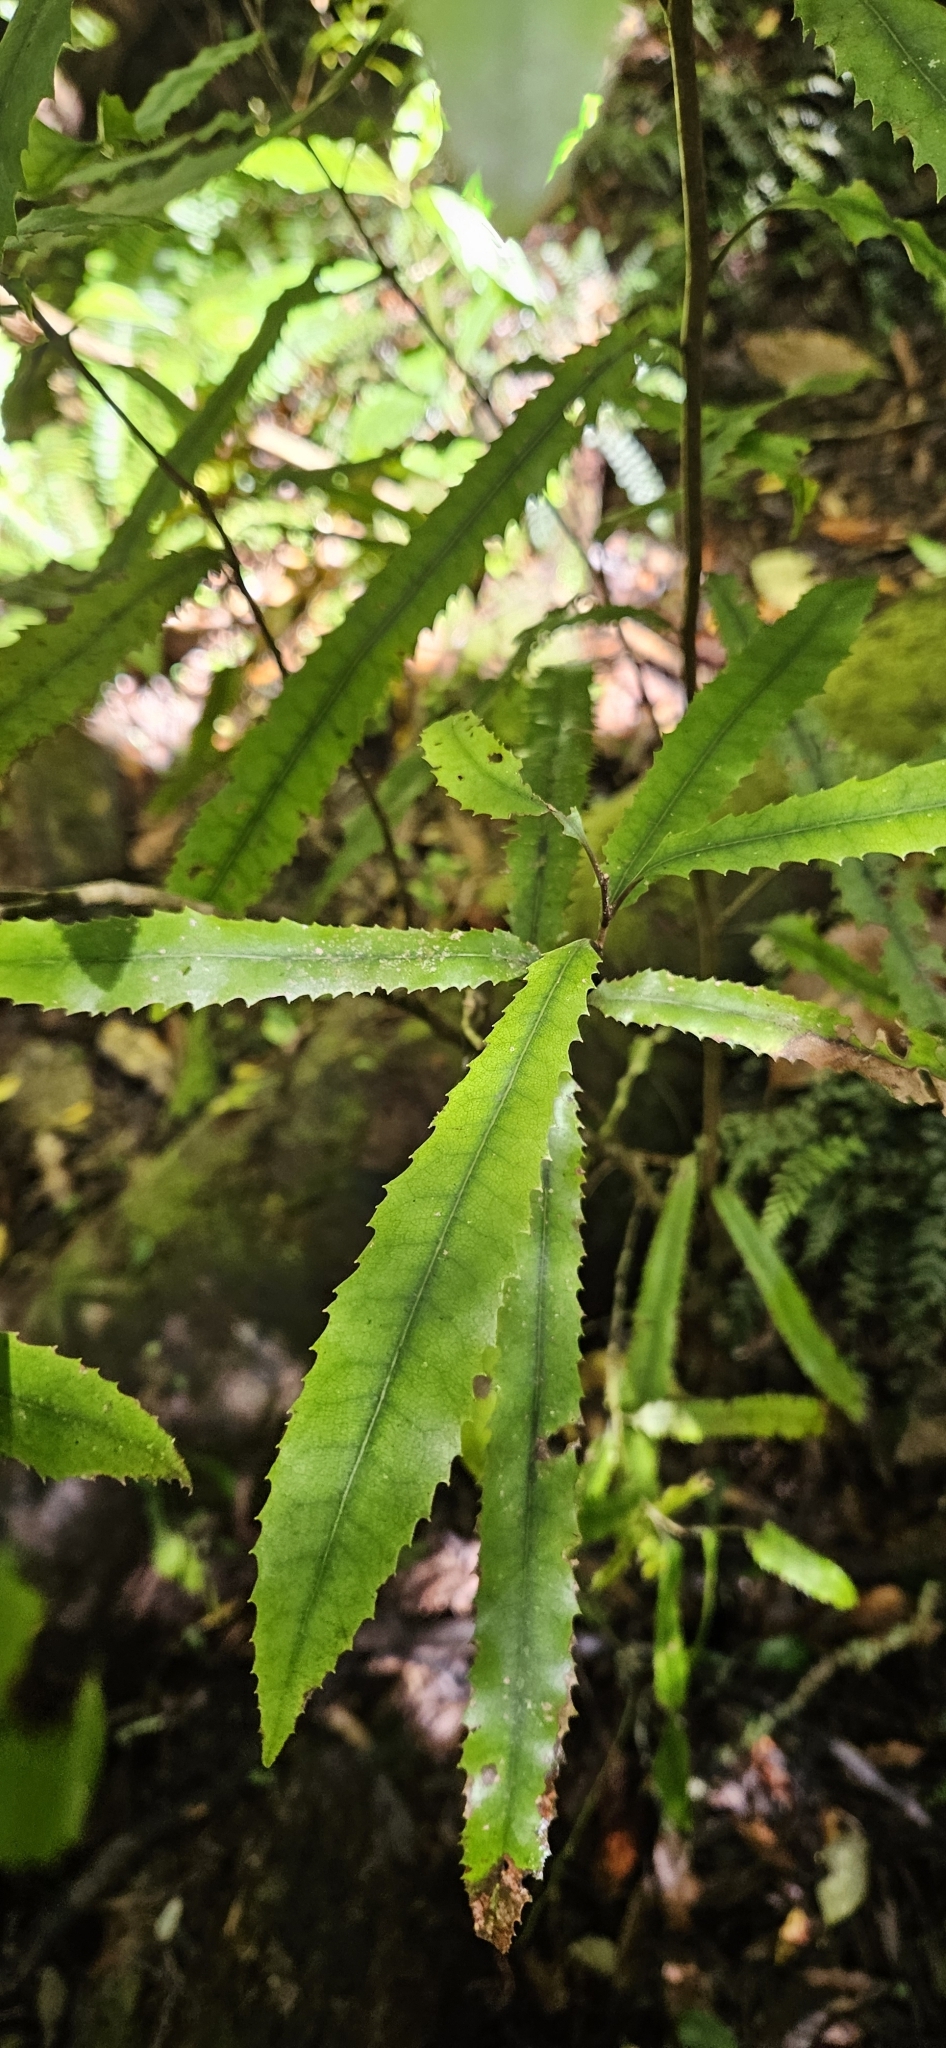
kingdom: Plantae
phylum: Tracheophyta
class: Magnoliopsida
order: Proteales
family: Proteaceae
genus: Knightia
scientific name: Knightia excelsa
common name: New zealand-honeysuckle
